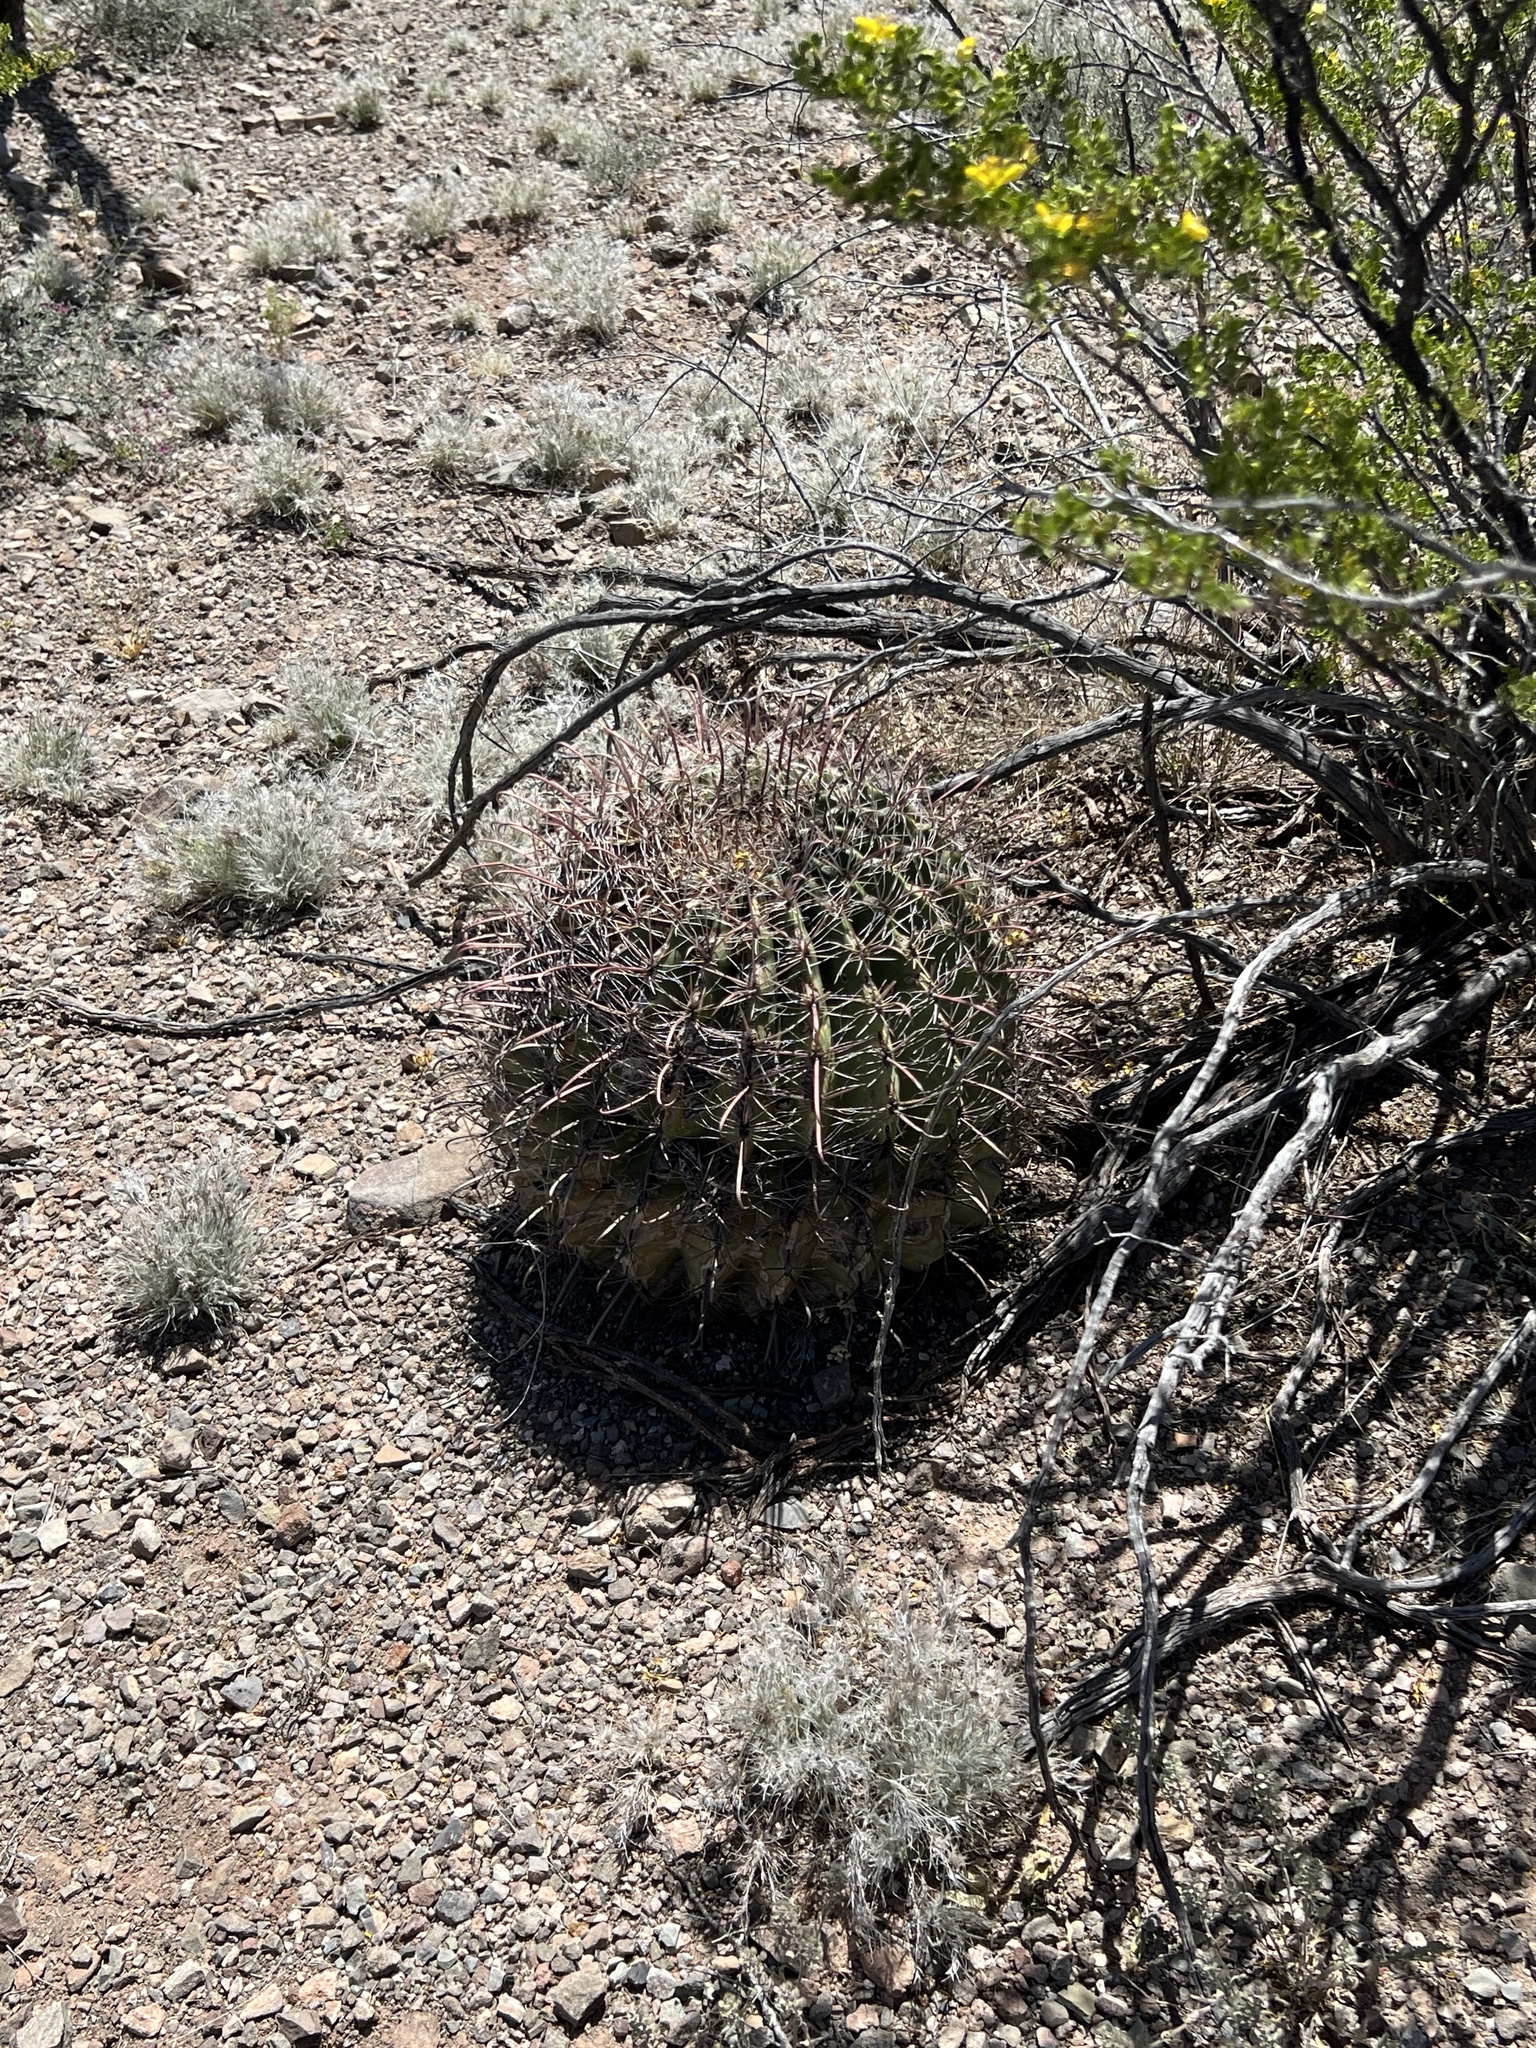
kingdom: Plantae
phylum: Tracheophyta
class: Magnoliopsida
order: Caryophyllales
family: Cactaceae
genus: Ferocactus
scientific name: Ferocactus wislizeni
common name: Candy barrel cactus
